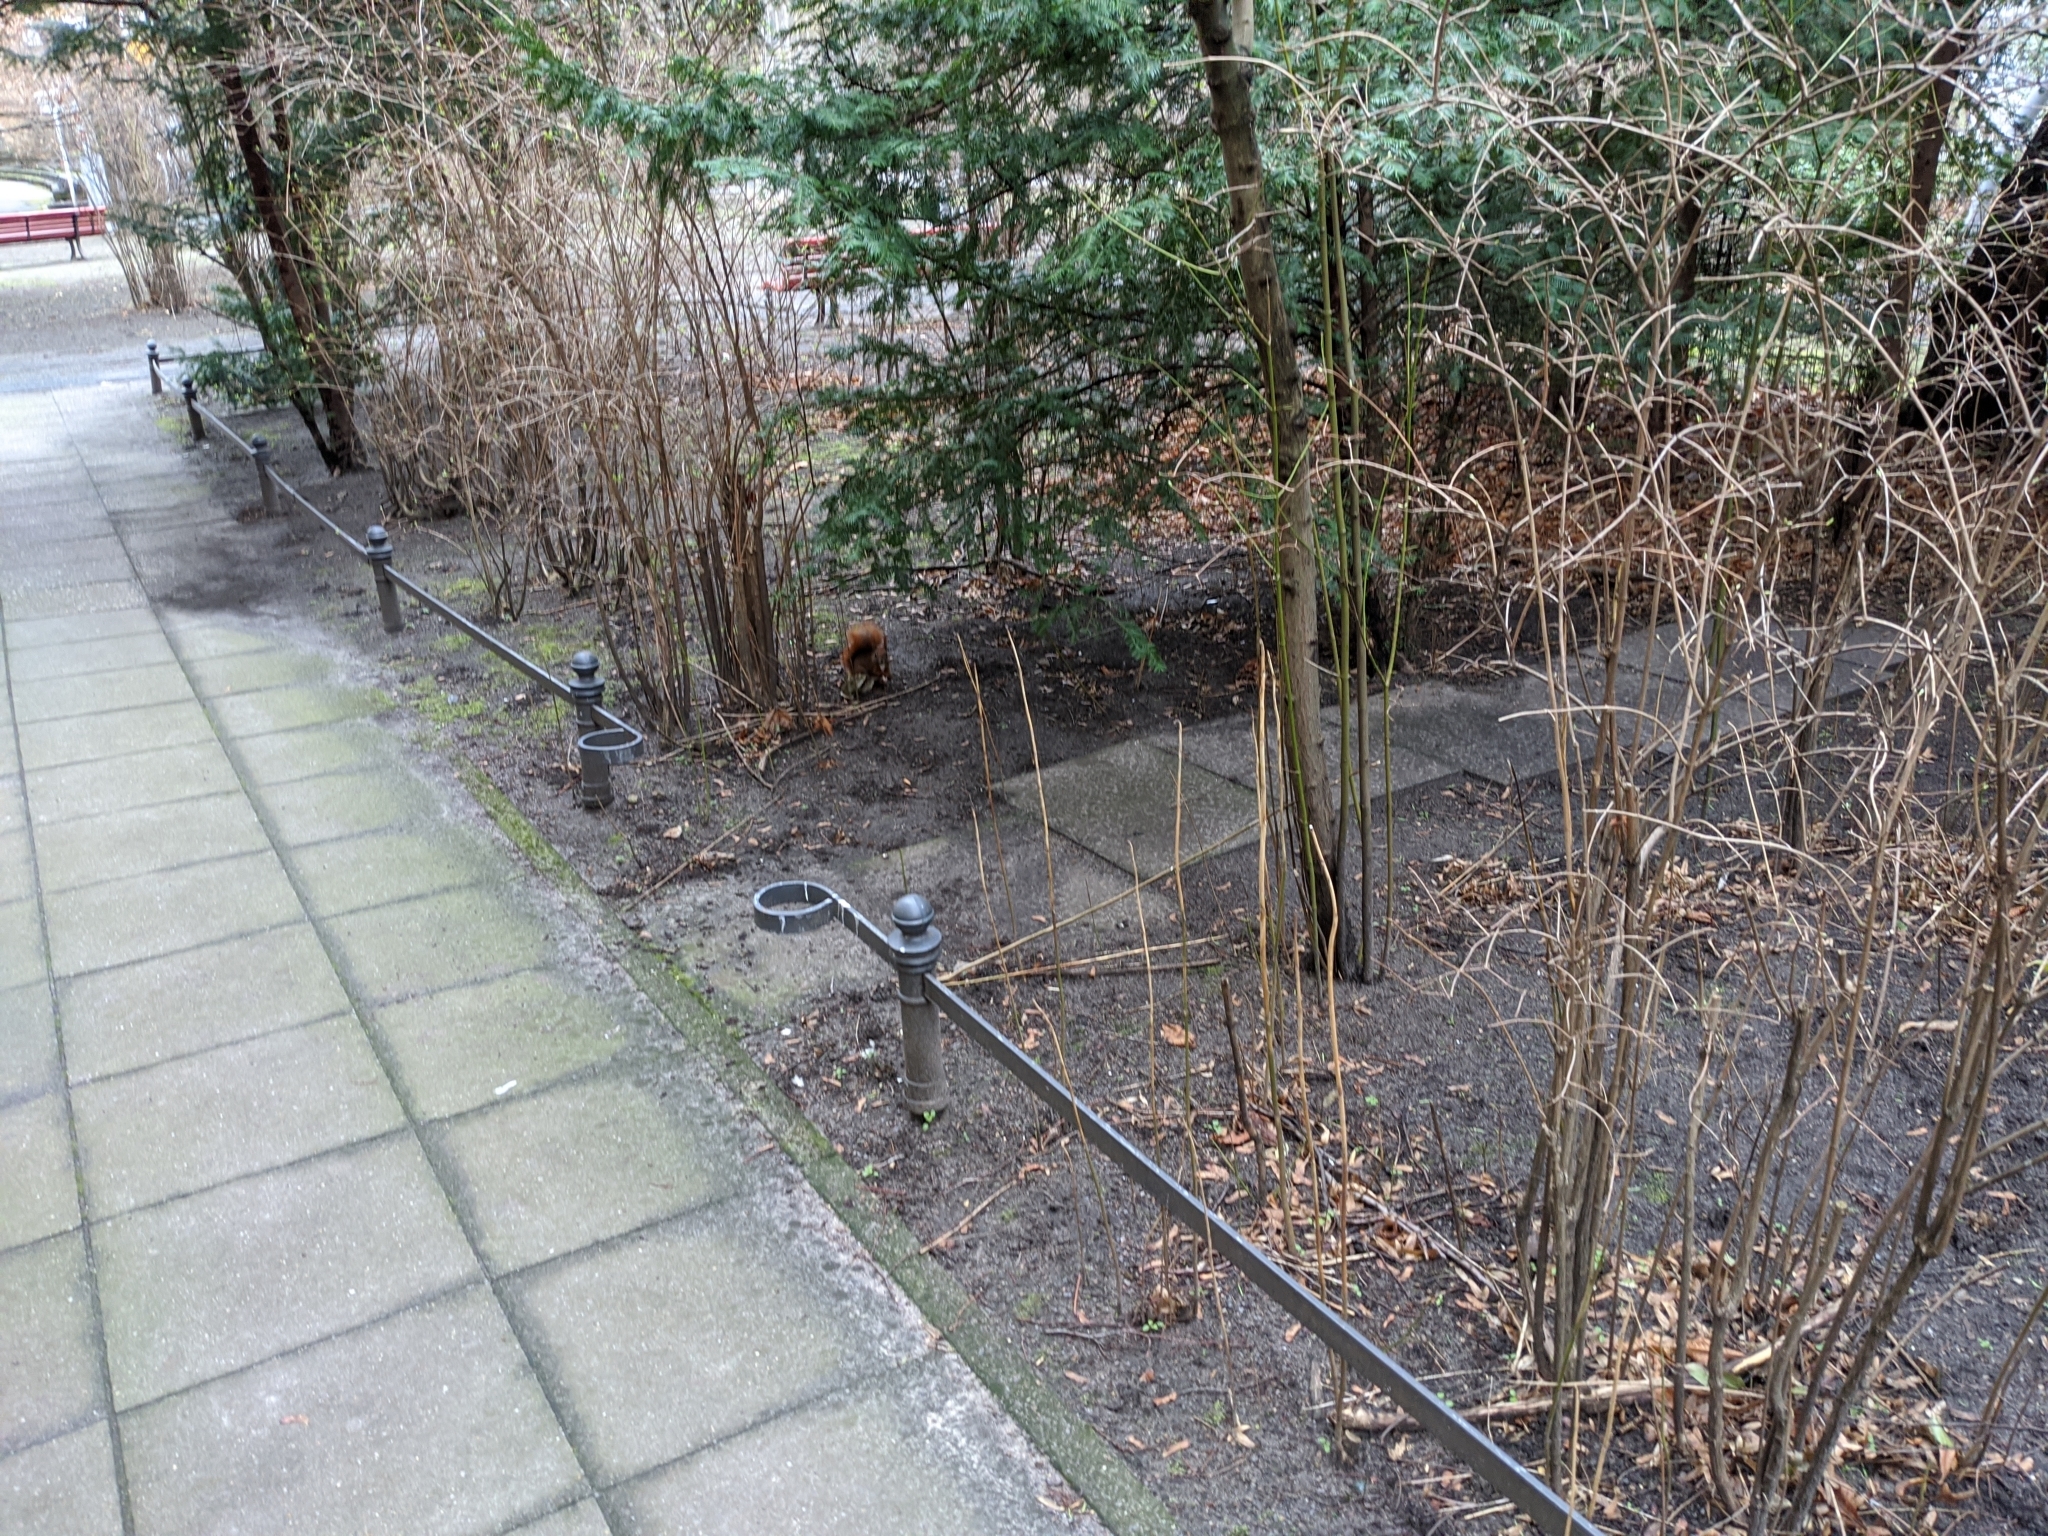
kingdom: Animalia
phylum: Chordata
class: Mammalia
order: Rodentia
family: Sciuridae
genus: Sciurus
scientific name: Sciurus vulgaris
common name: Eurasian red squirrel
